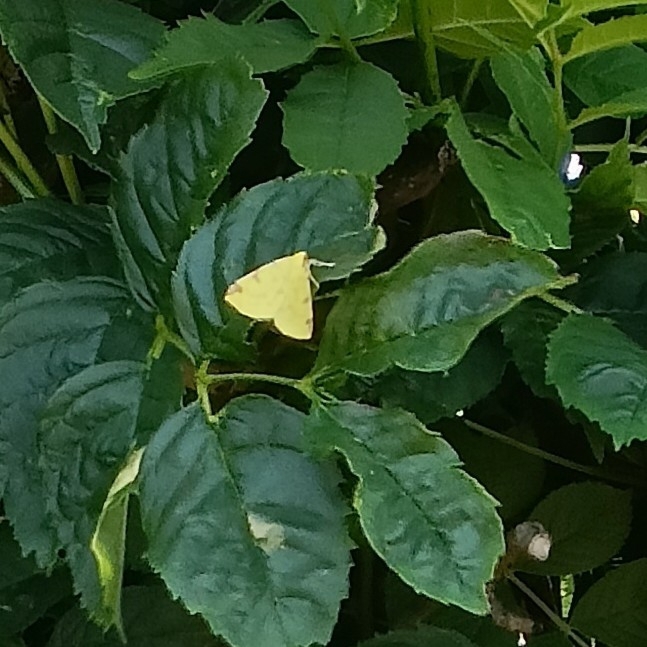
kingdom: Animalia
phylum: Arthropoda
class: Insecta
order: Lepidoptera
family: Geometridae
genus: Opisthograptis
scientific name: Opisthograptis luteolata
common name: Brimstone moth
